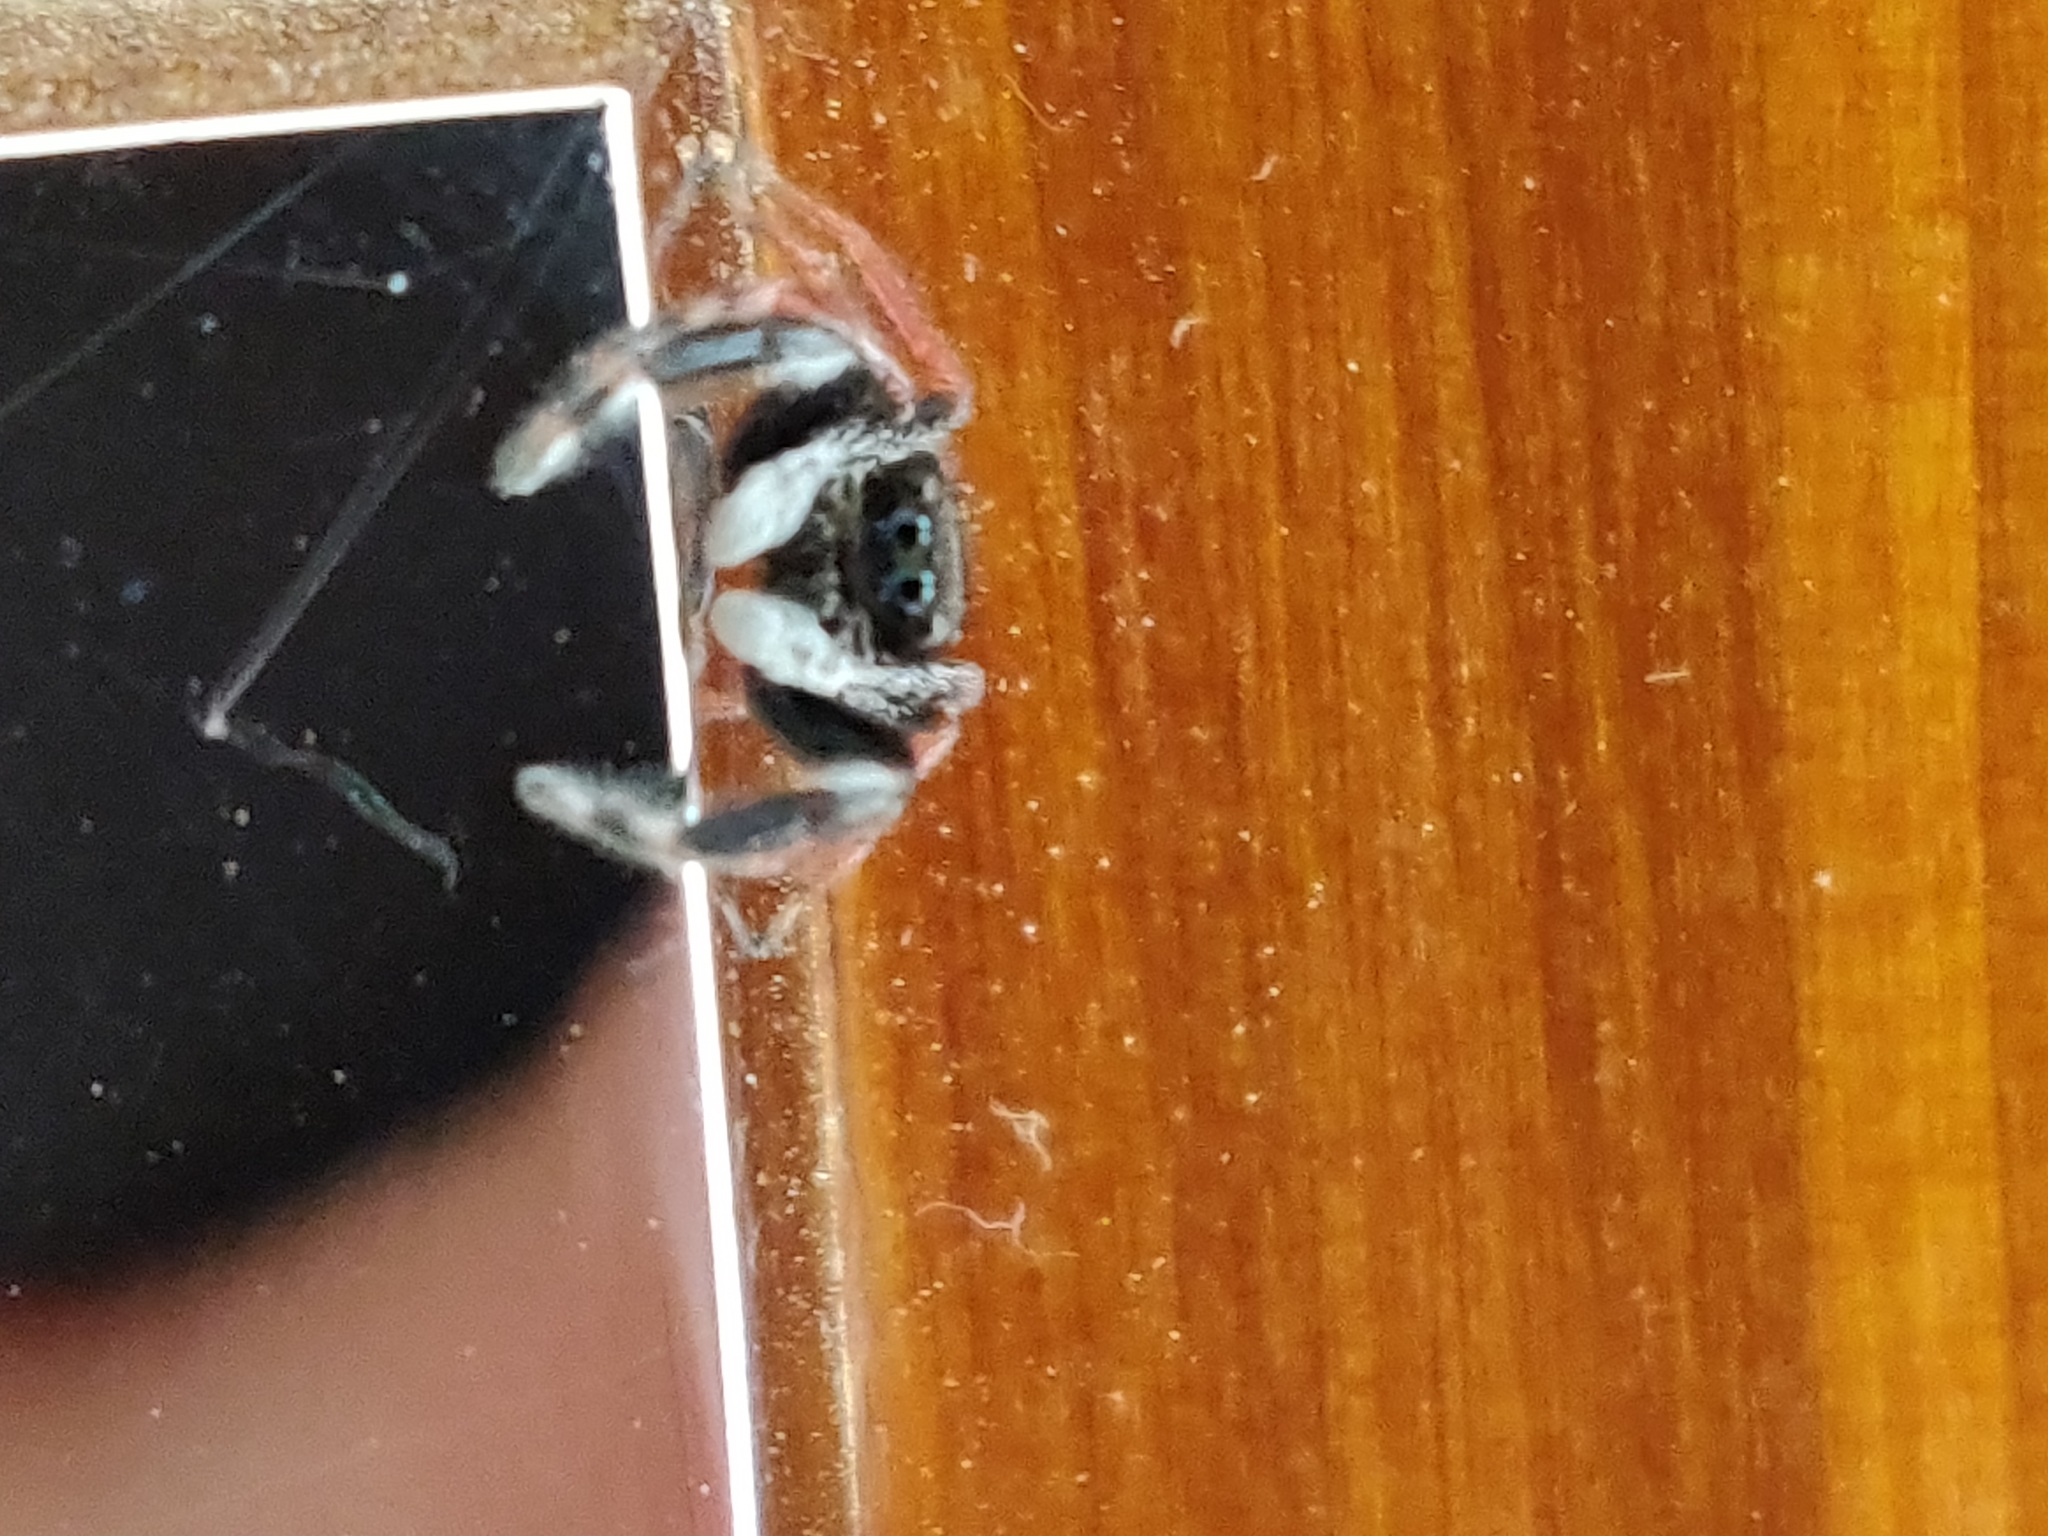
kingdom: Animalia
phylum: Arthropoda
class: Arachnida
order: Araneae
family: Salticidae
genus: Apricia
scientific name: Apricia jovialis
